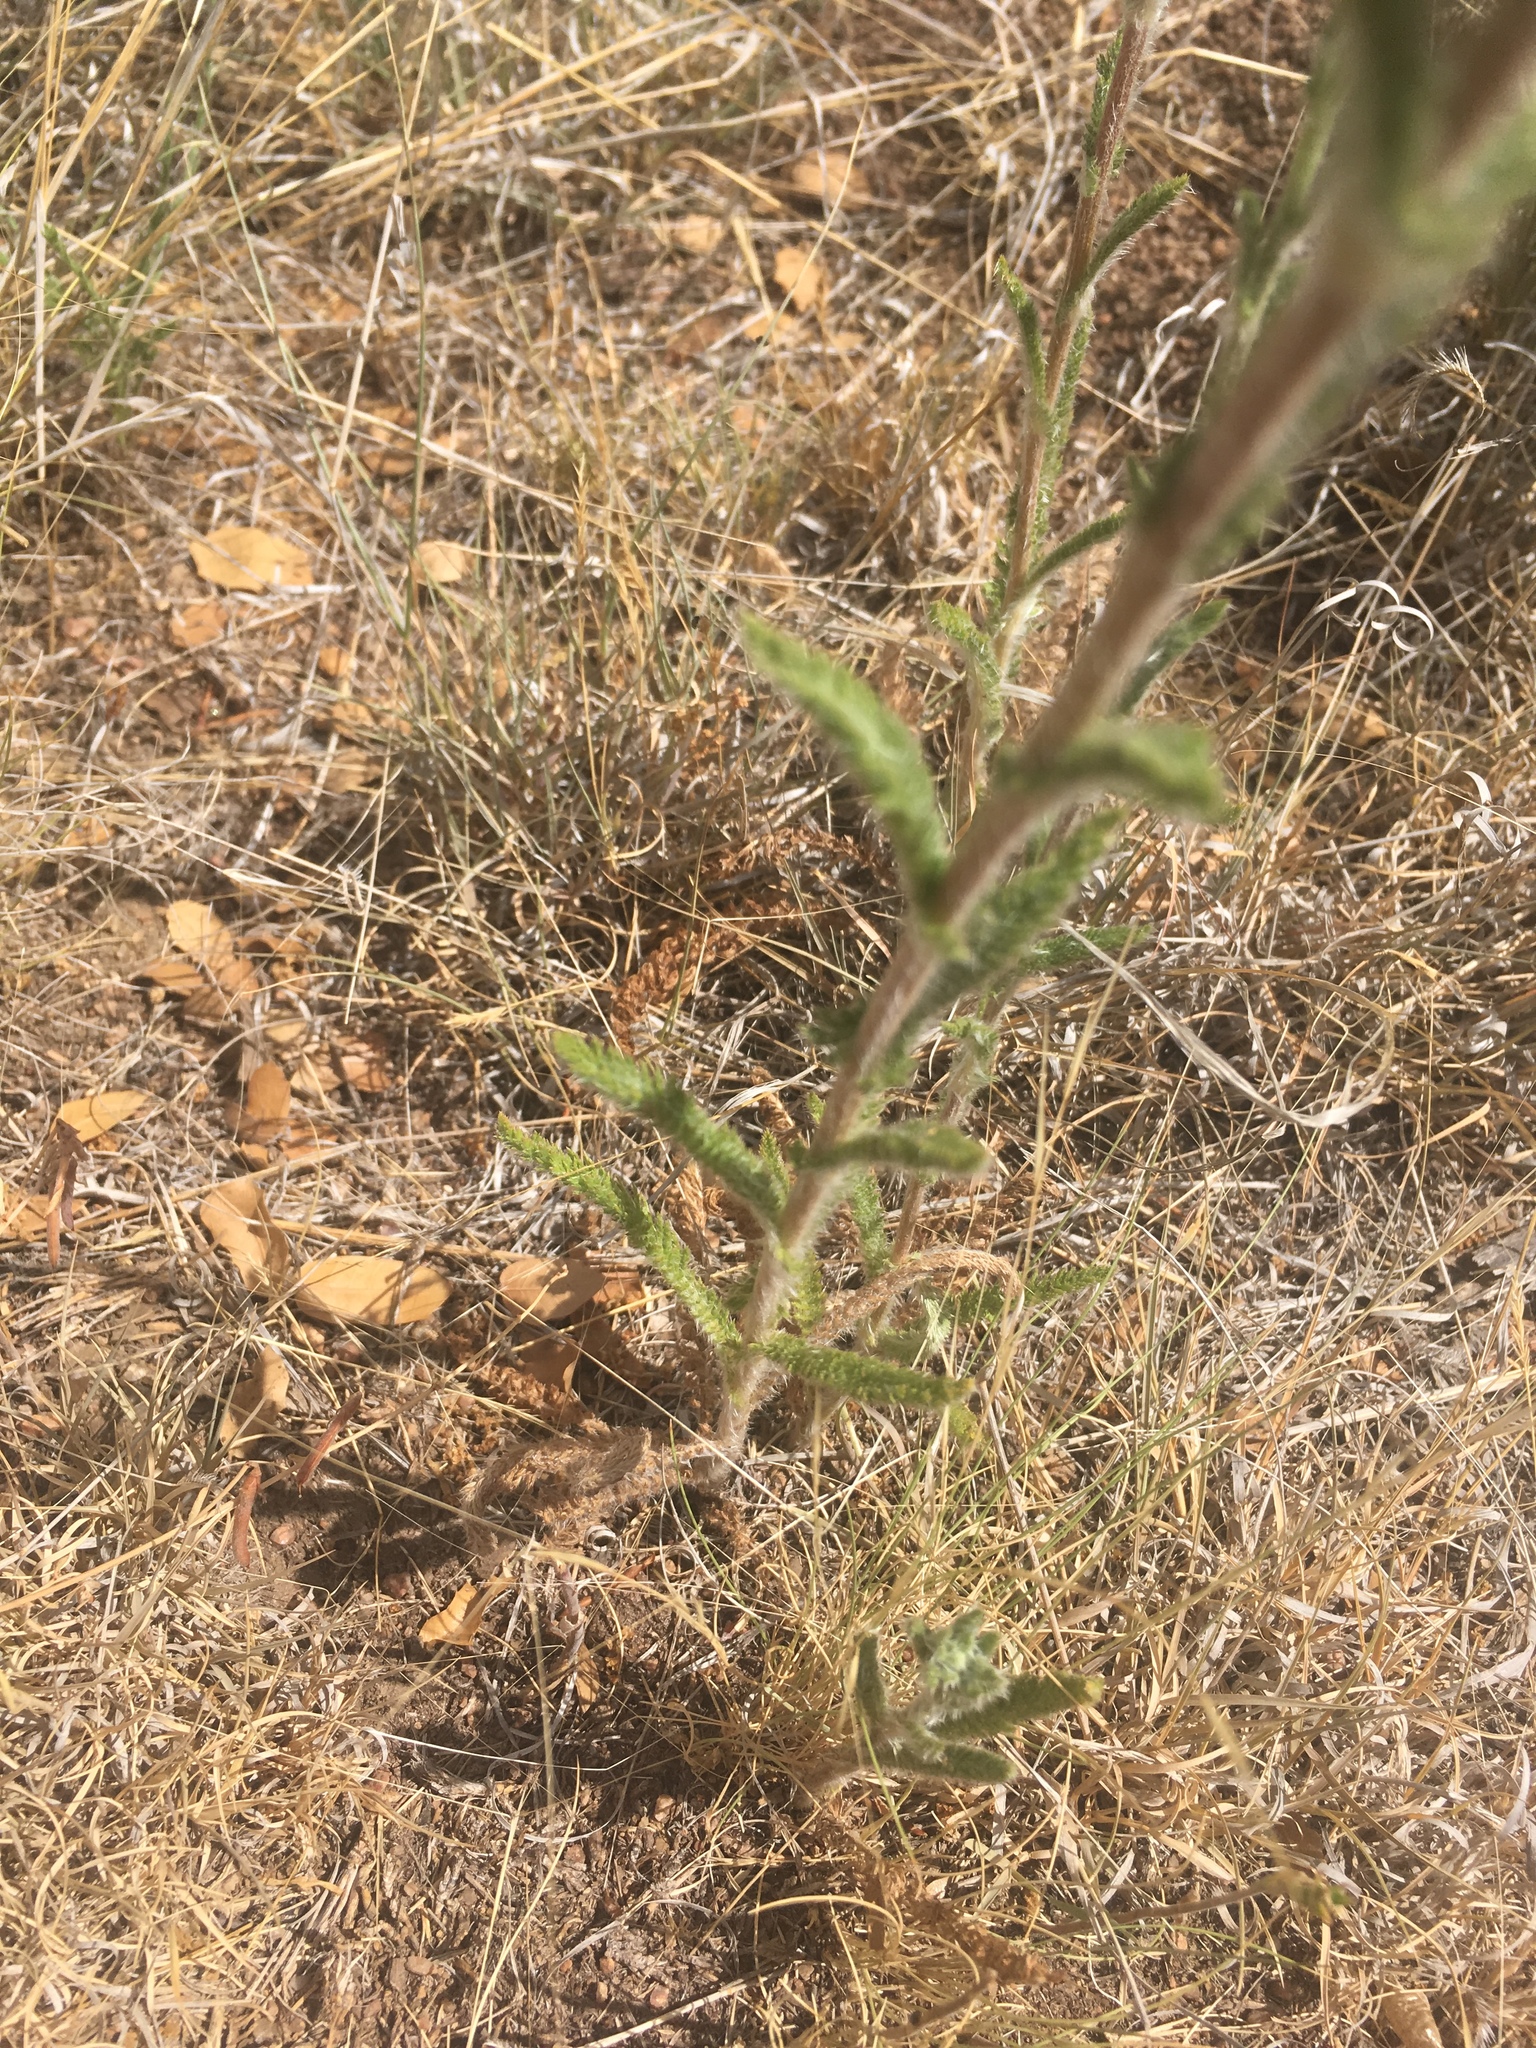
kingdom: Plantae
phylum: Tracheophyta
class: Magnoliopsida
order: Asterales
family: Asteraceae
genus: Achillea
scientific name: Achillea millefolium
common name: Yarrow
